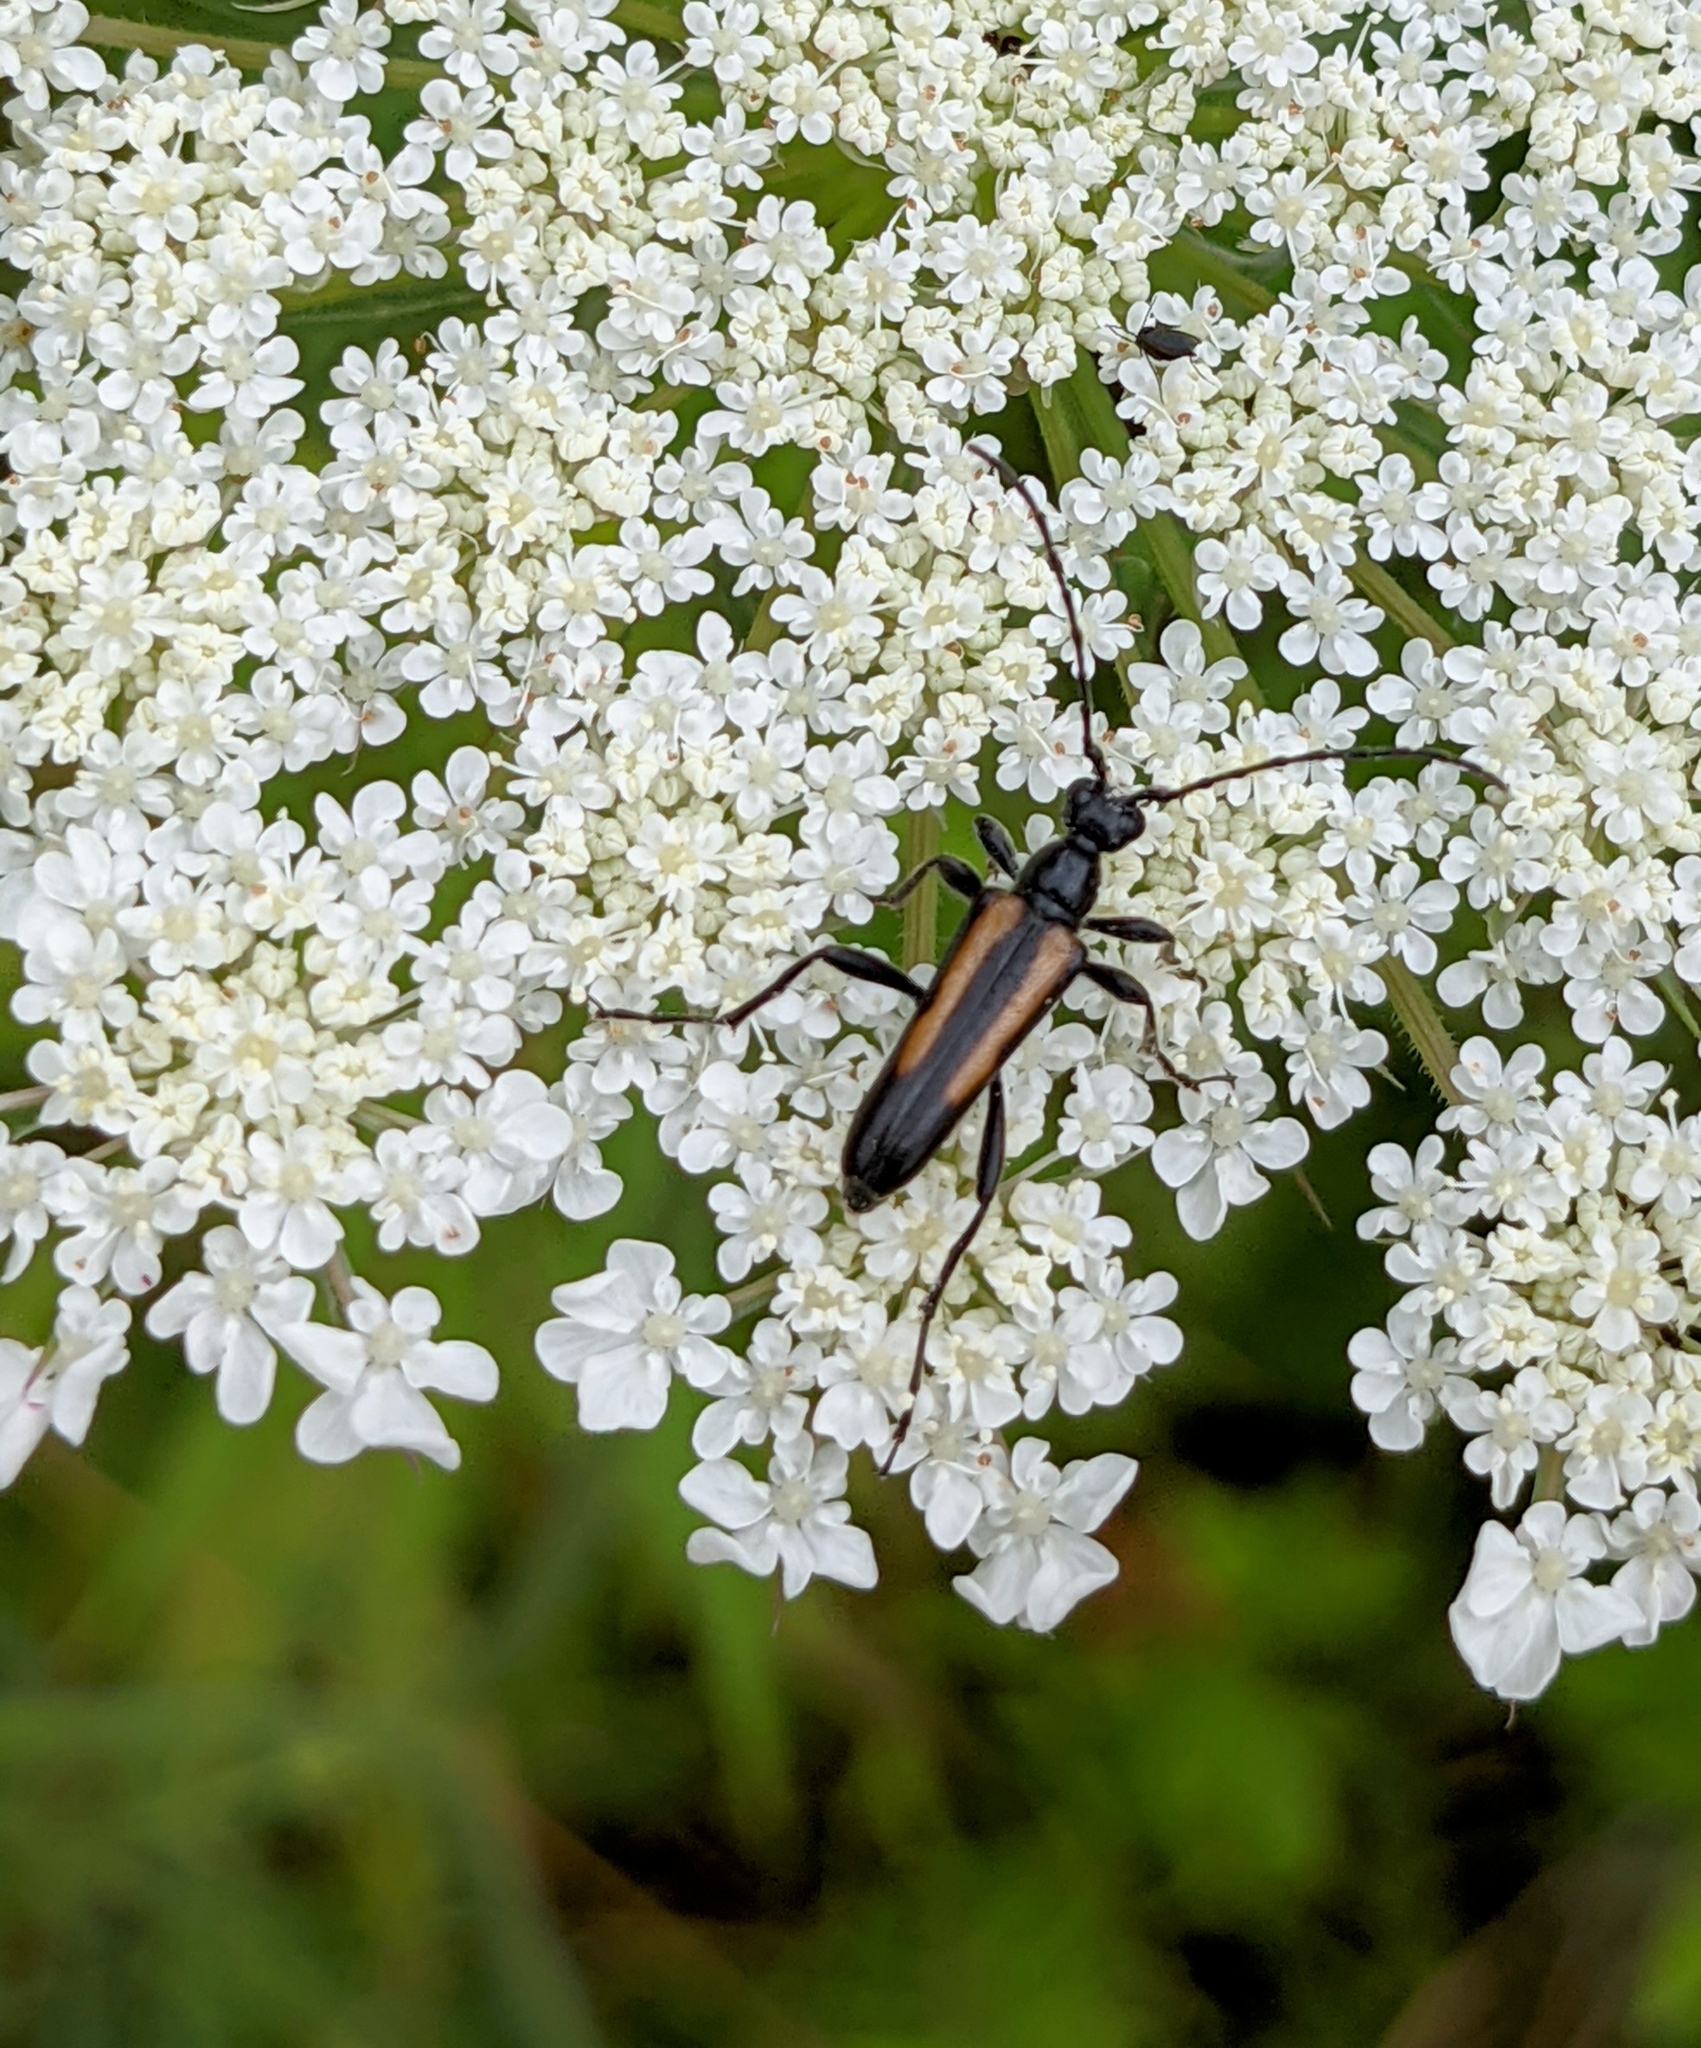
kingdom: Animalia
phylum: Arthropoda
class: Insecta
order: Coleoptera
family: Cerambycidae
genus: Strangalepta
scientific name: Strangalepta abbreviata
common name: Strangalepta flower longhorn beetle
